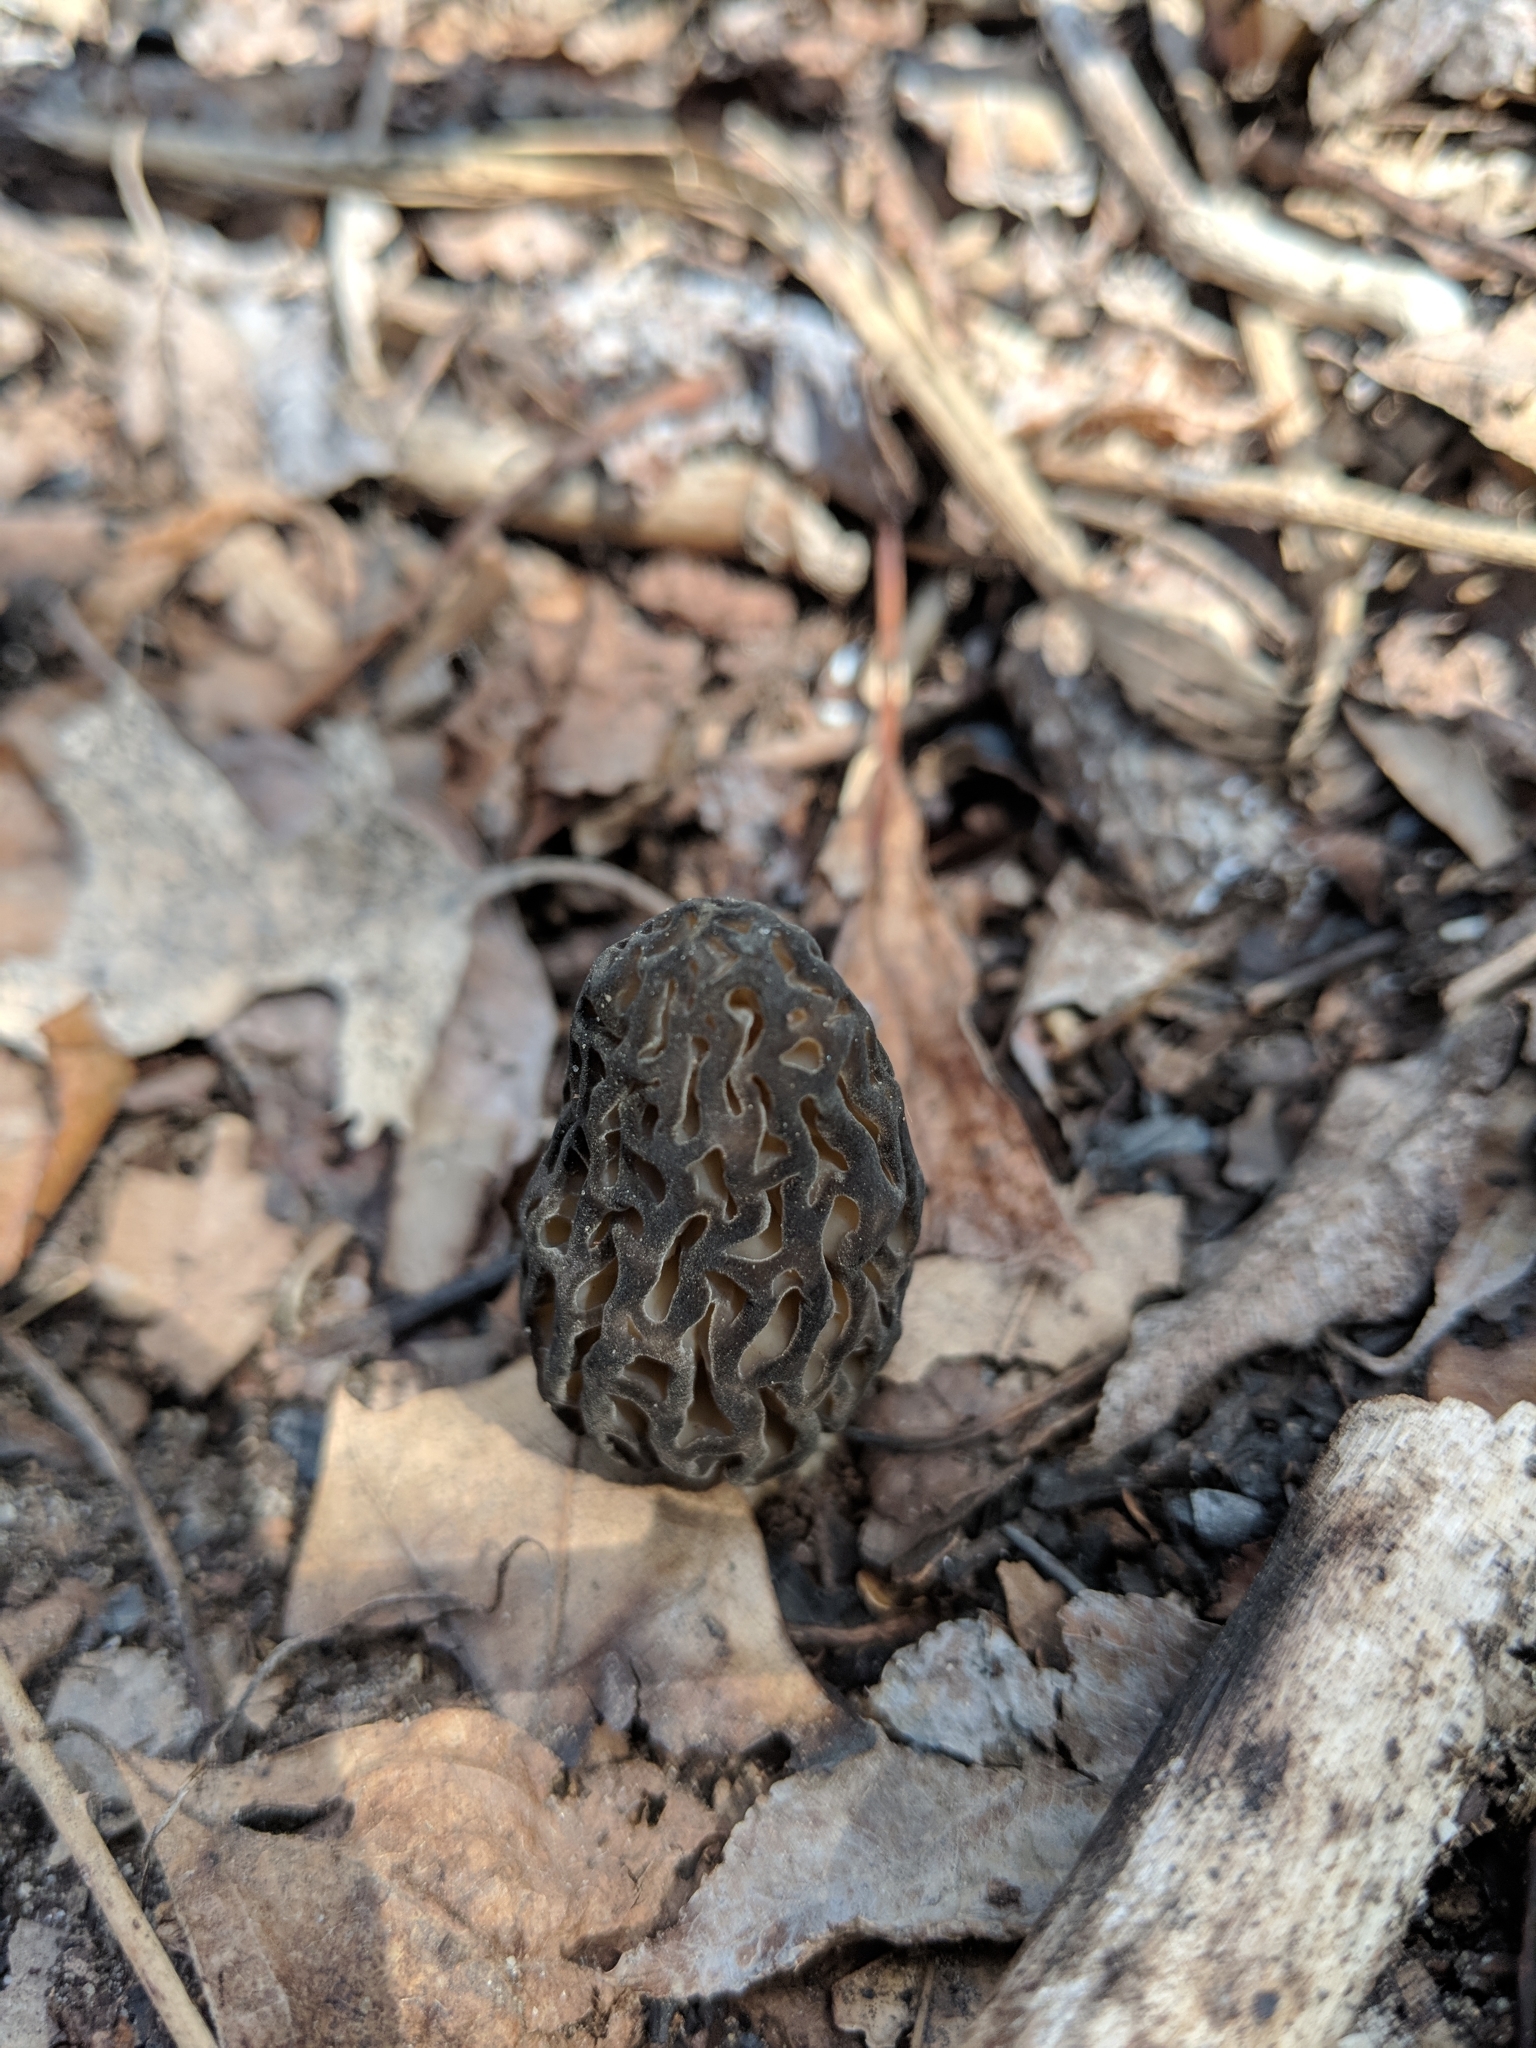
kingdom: Fungi
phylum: Ascomycota
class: Pezizomycetes
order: Pezizales
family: Morchellaceae
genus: Morchella
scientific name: Morchella angusticeps
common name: Black morel
